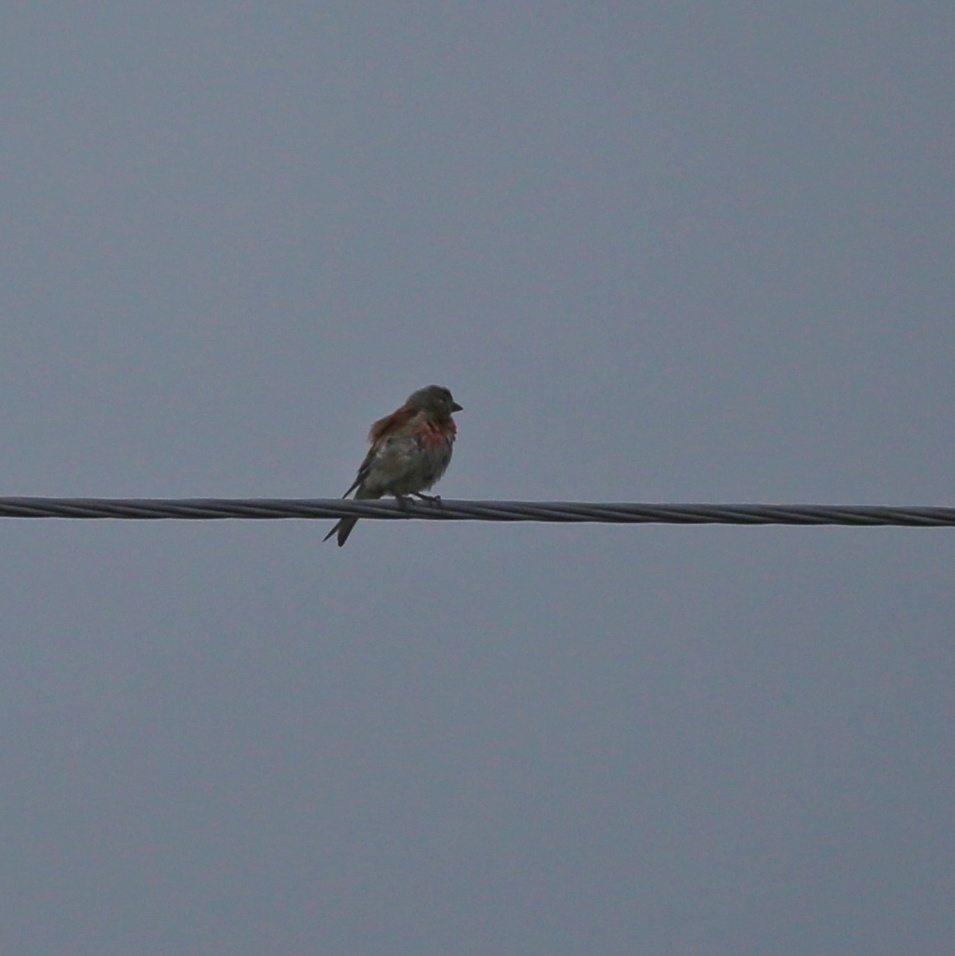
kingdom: Animalia
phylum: Chordata
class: Aves
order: Passeriformes
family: Fringillidae
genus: Linaria
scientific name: Linaria cannabina
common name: Common linnet
